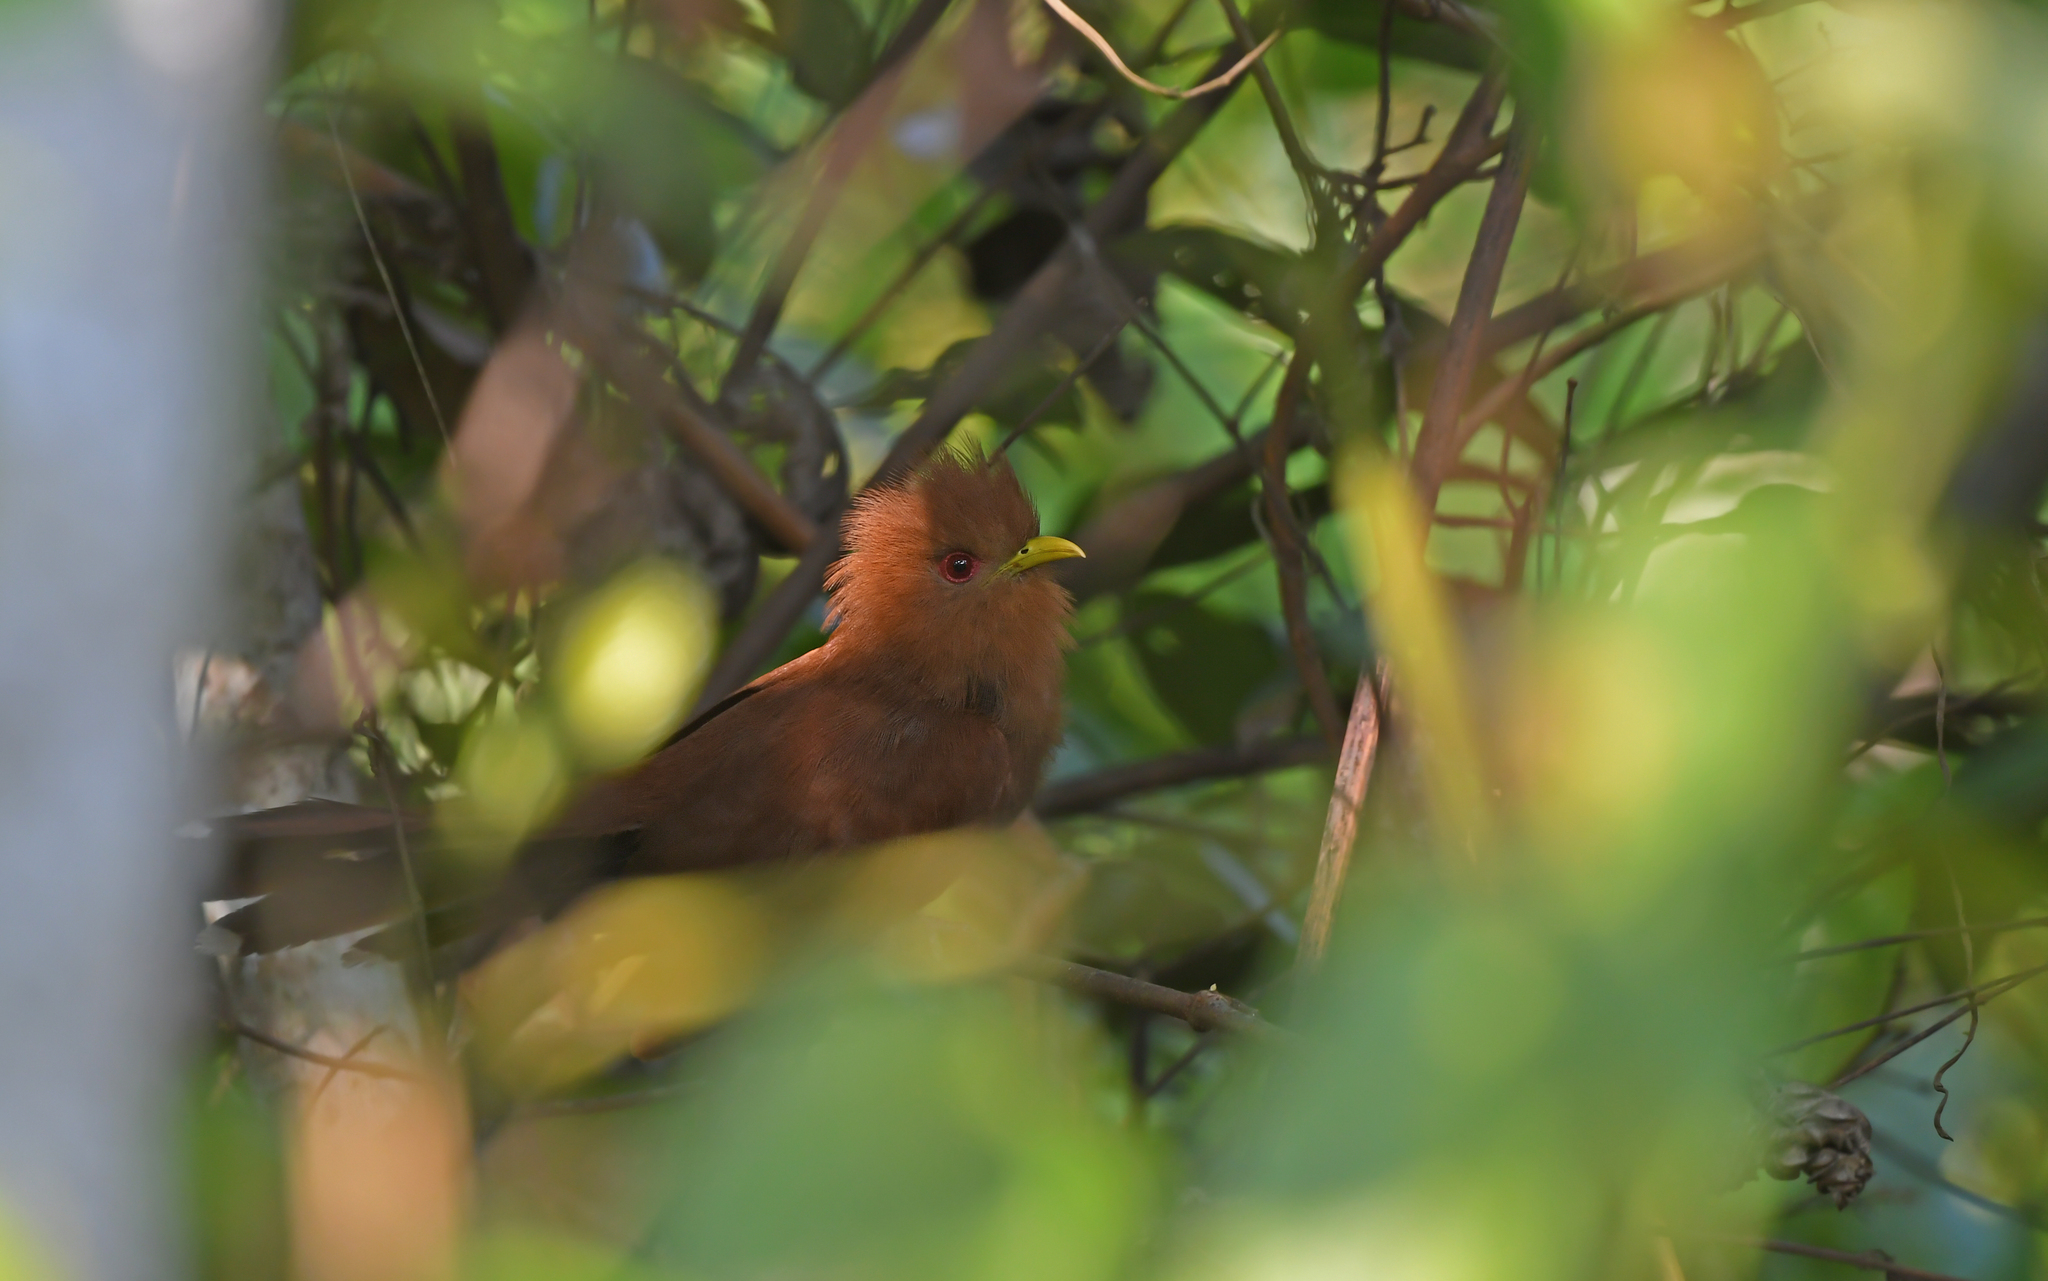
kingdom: Animalia
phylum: Chordata
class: Aves
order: Cuculiformes
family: Cuculidae
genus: Piaya
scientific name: Piaya minuta
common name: Little cuckoo
